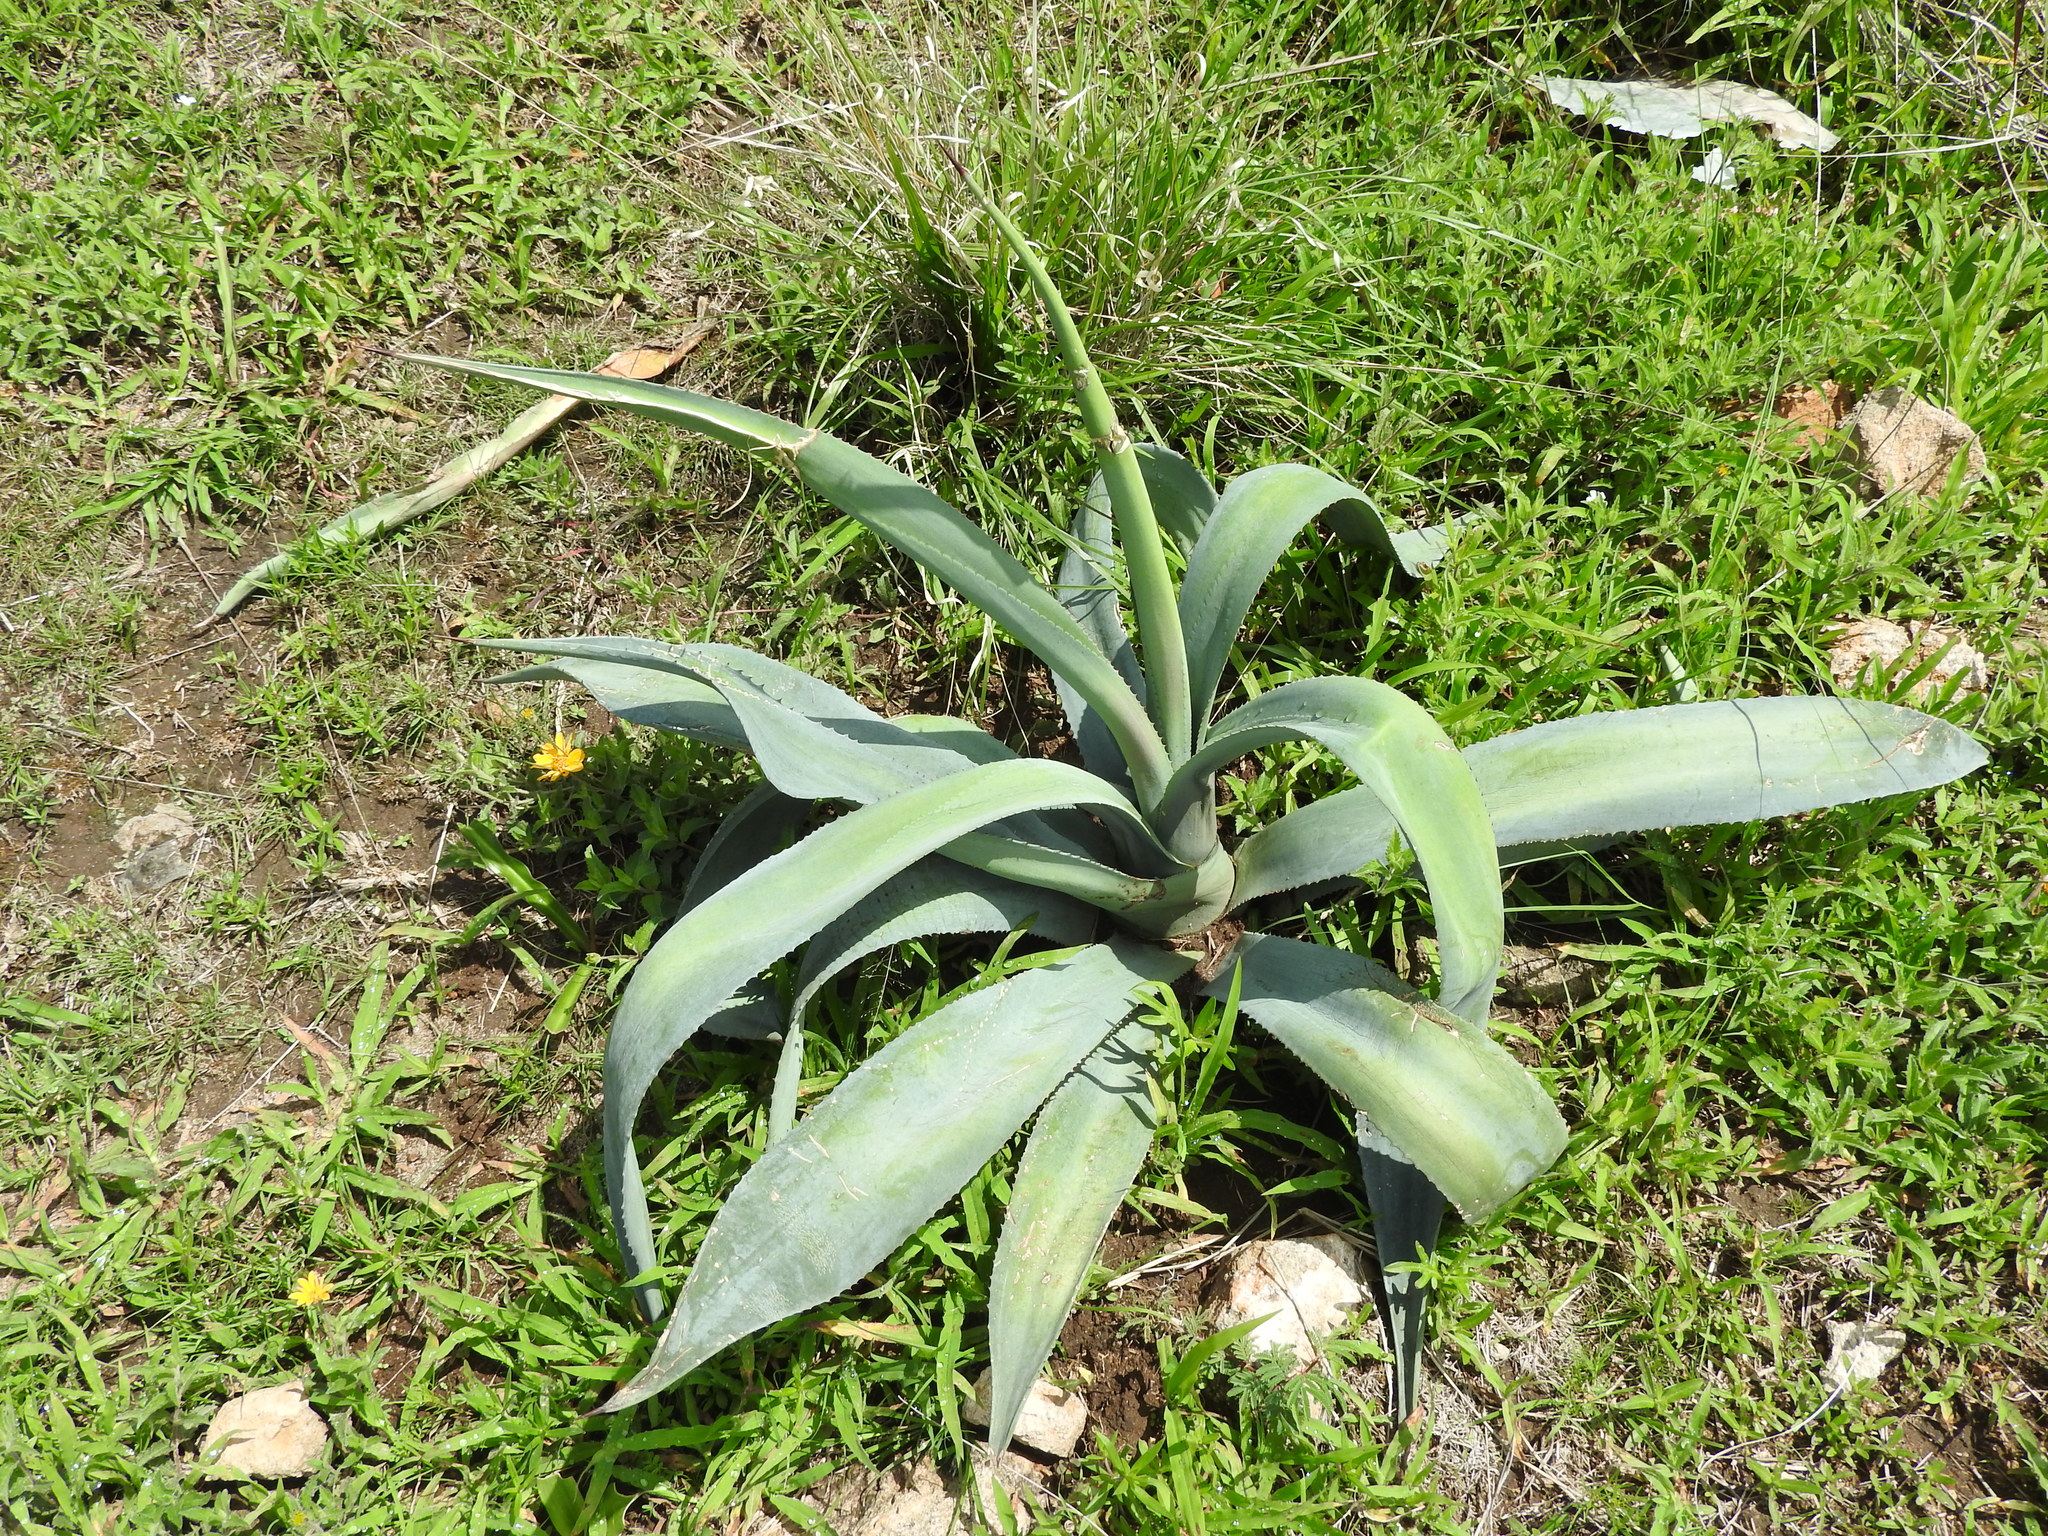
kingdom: Plantae
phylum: Tracheophyta
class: Liliopsida
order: Asparagales
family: Asparagaceae
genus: Agave
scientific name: Agave americana
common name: Centuryplant
